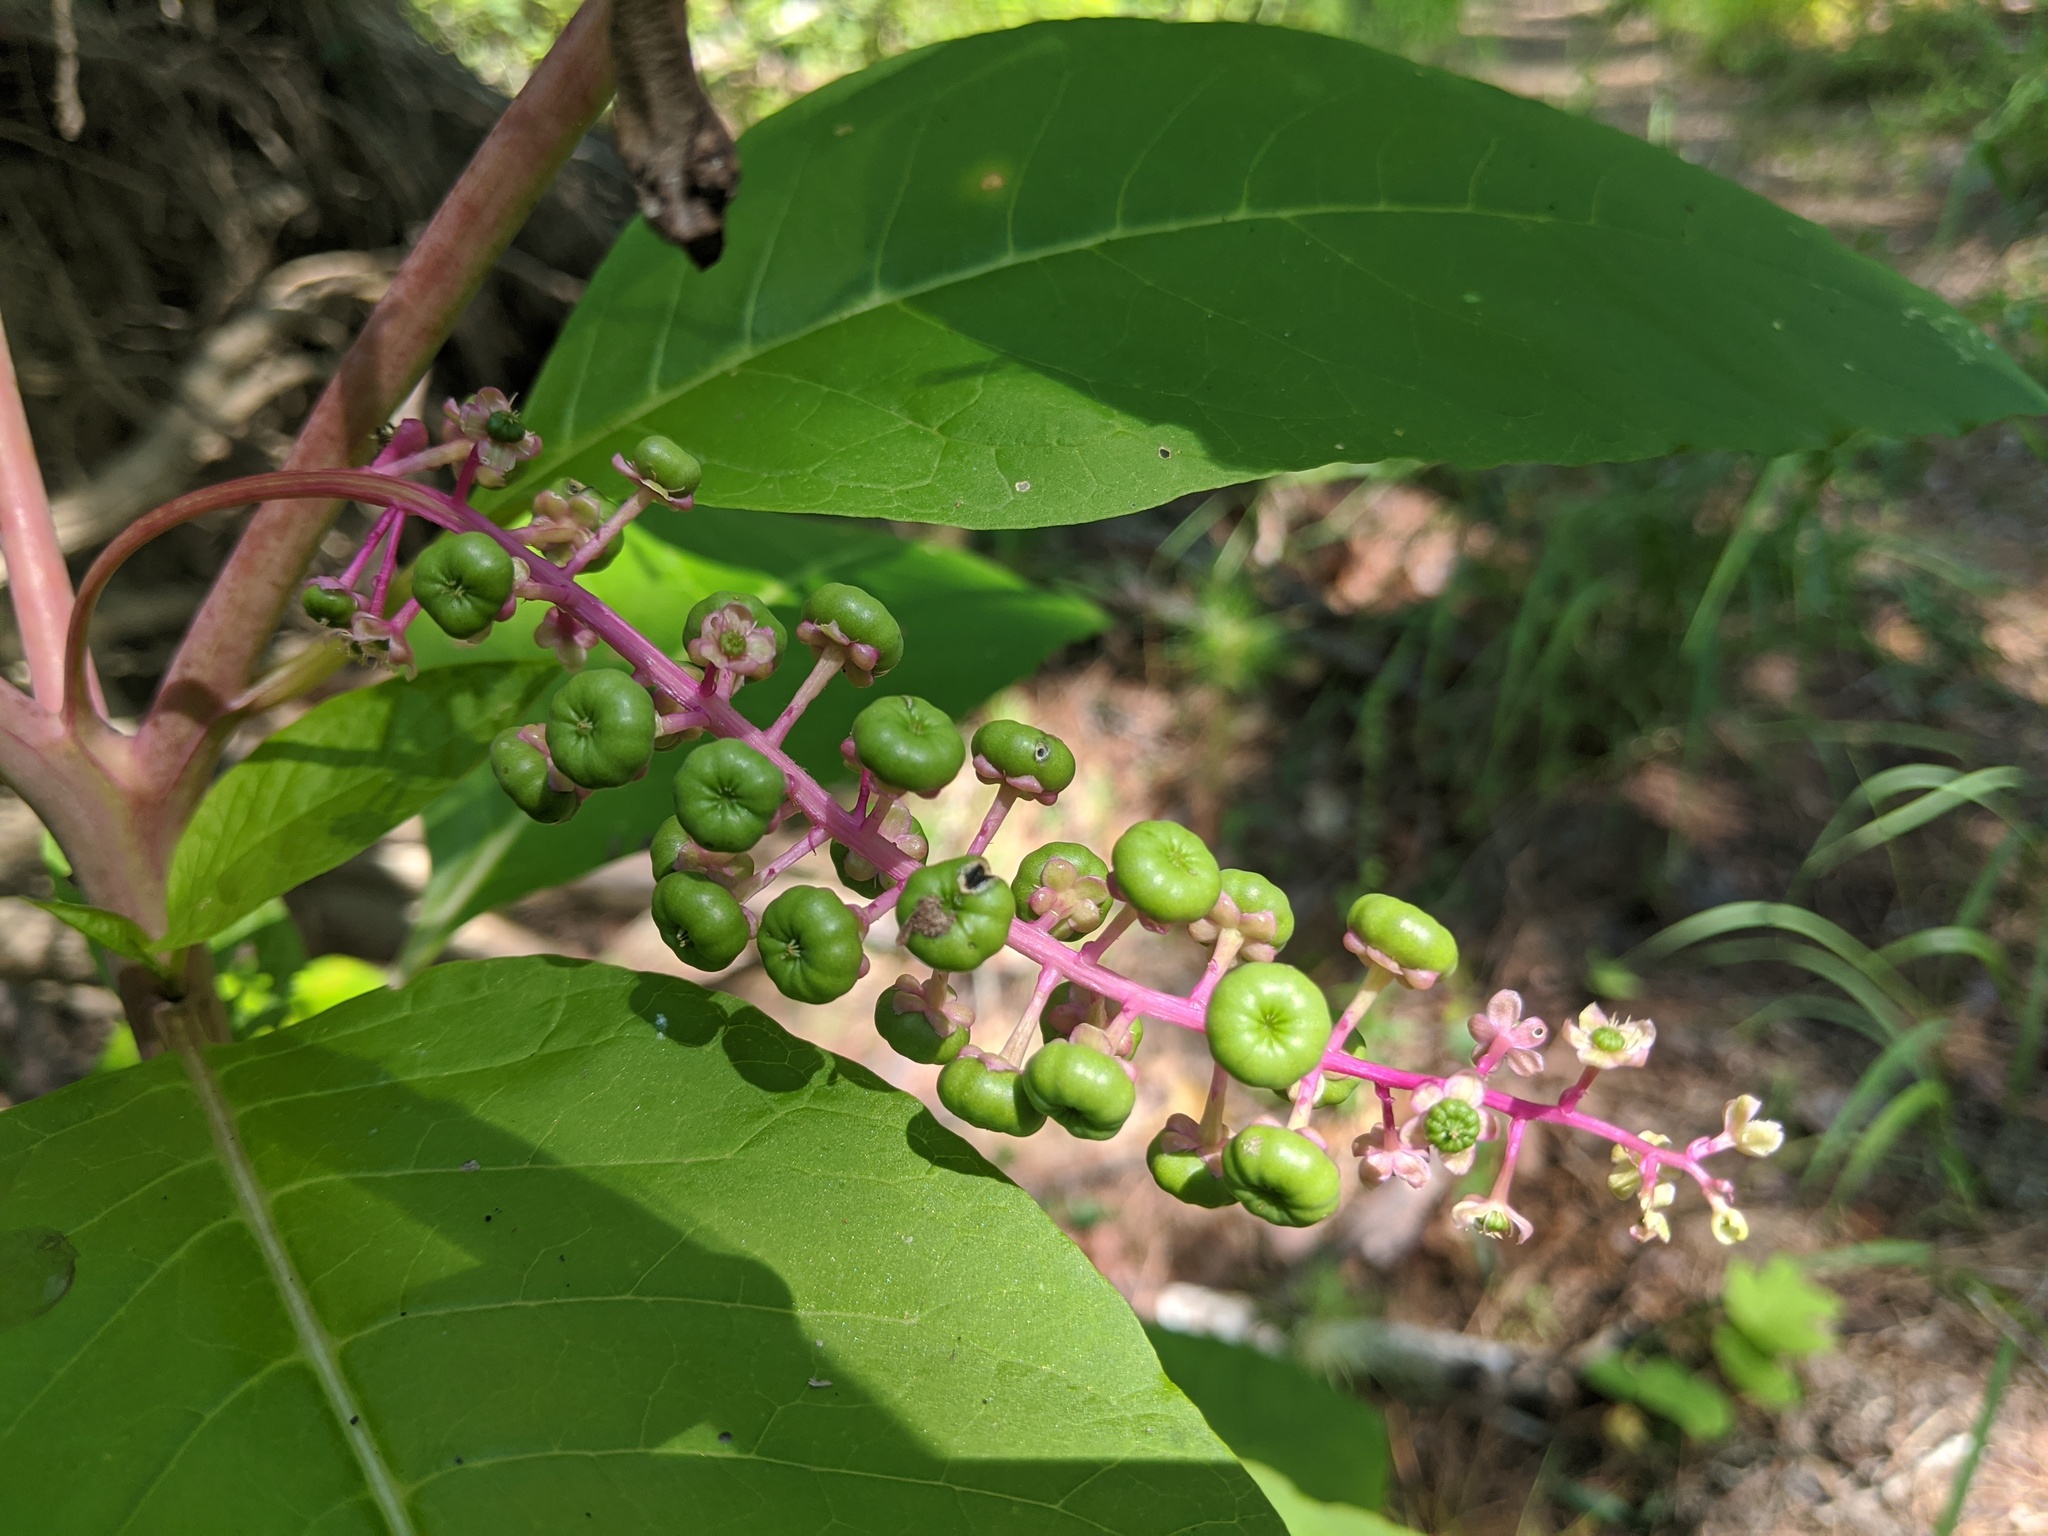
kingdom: Plantae
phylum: Tracheophyta
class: Magnoliopsida
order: Caryophyllales
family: Phytolaccaceae
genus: Phytolacca
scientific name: Phytolacca americana
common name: American pokeweed
